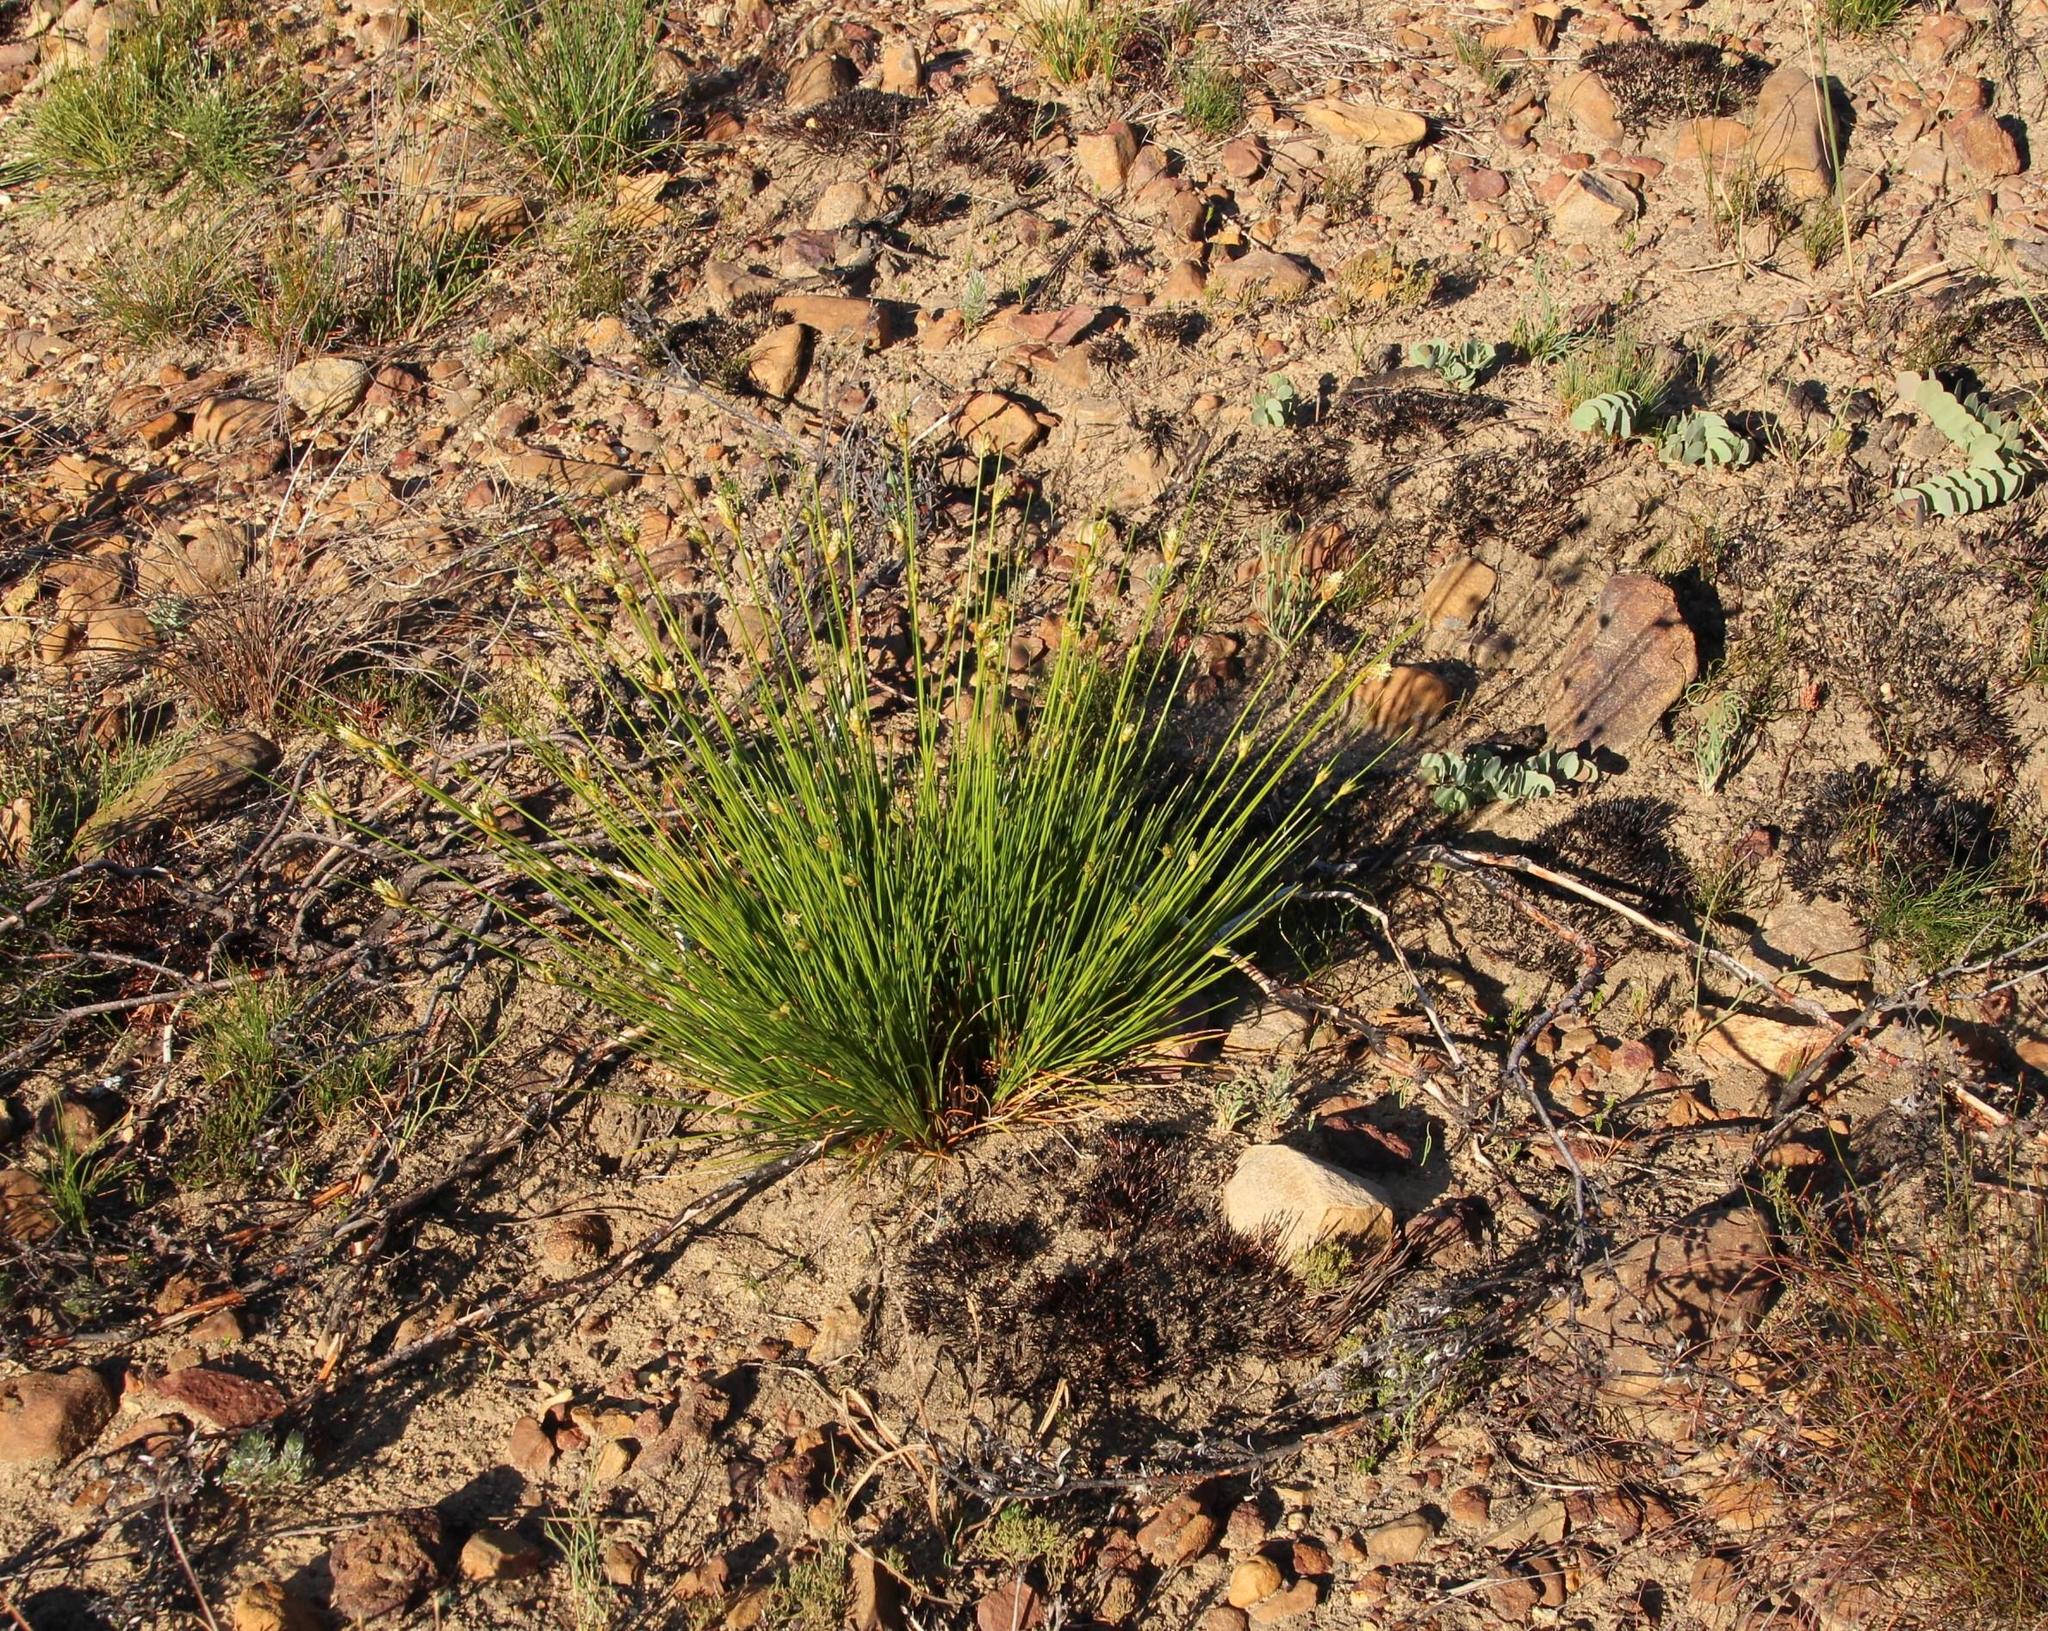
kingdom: Plantae
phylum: Tracheophyta
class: Liliopsida
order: Poales
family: Cyperaceae
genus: Ficinia
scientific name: Ficinia cedarbergensis
